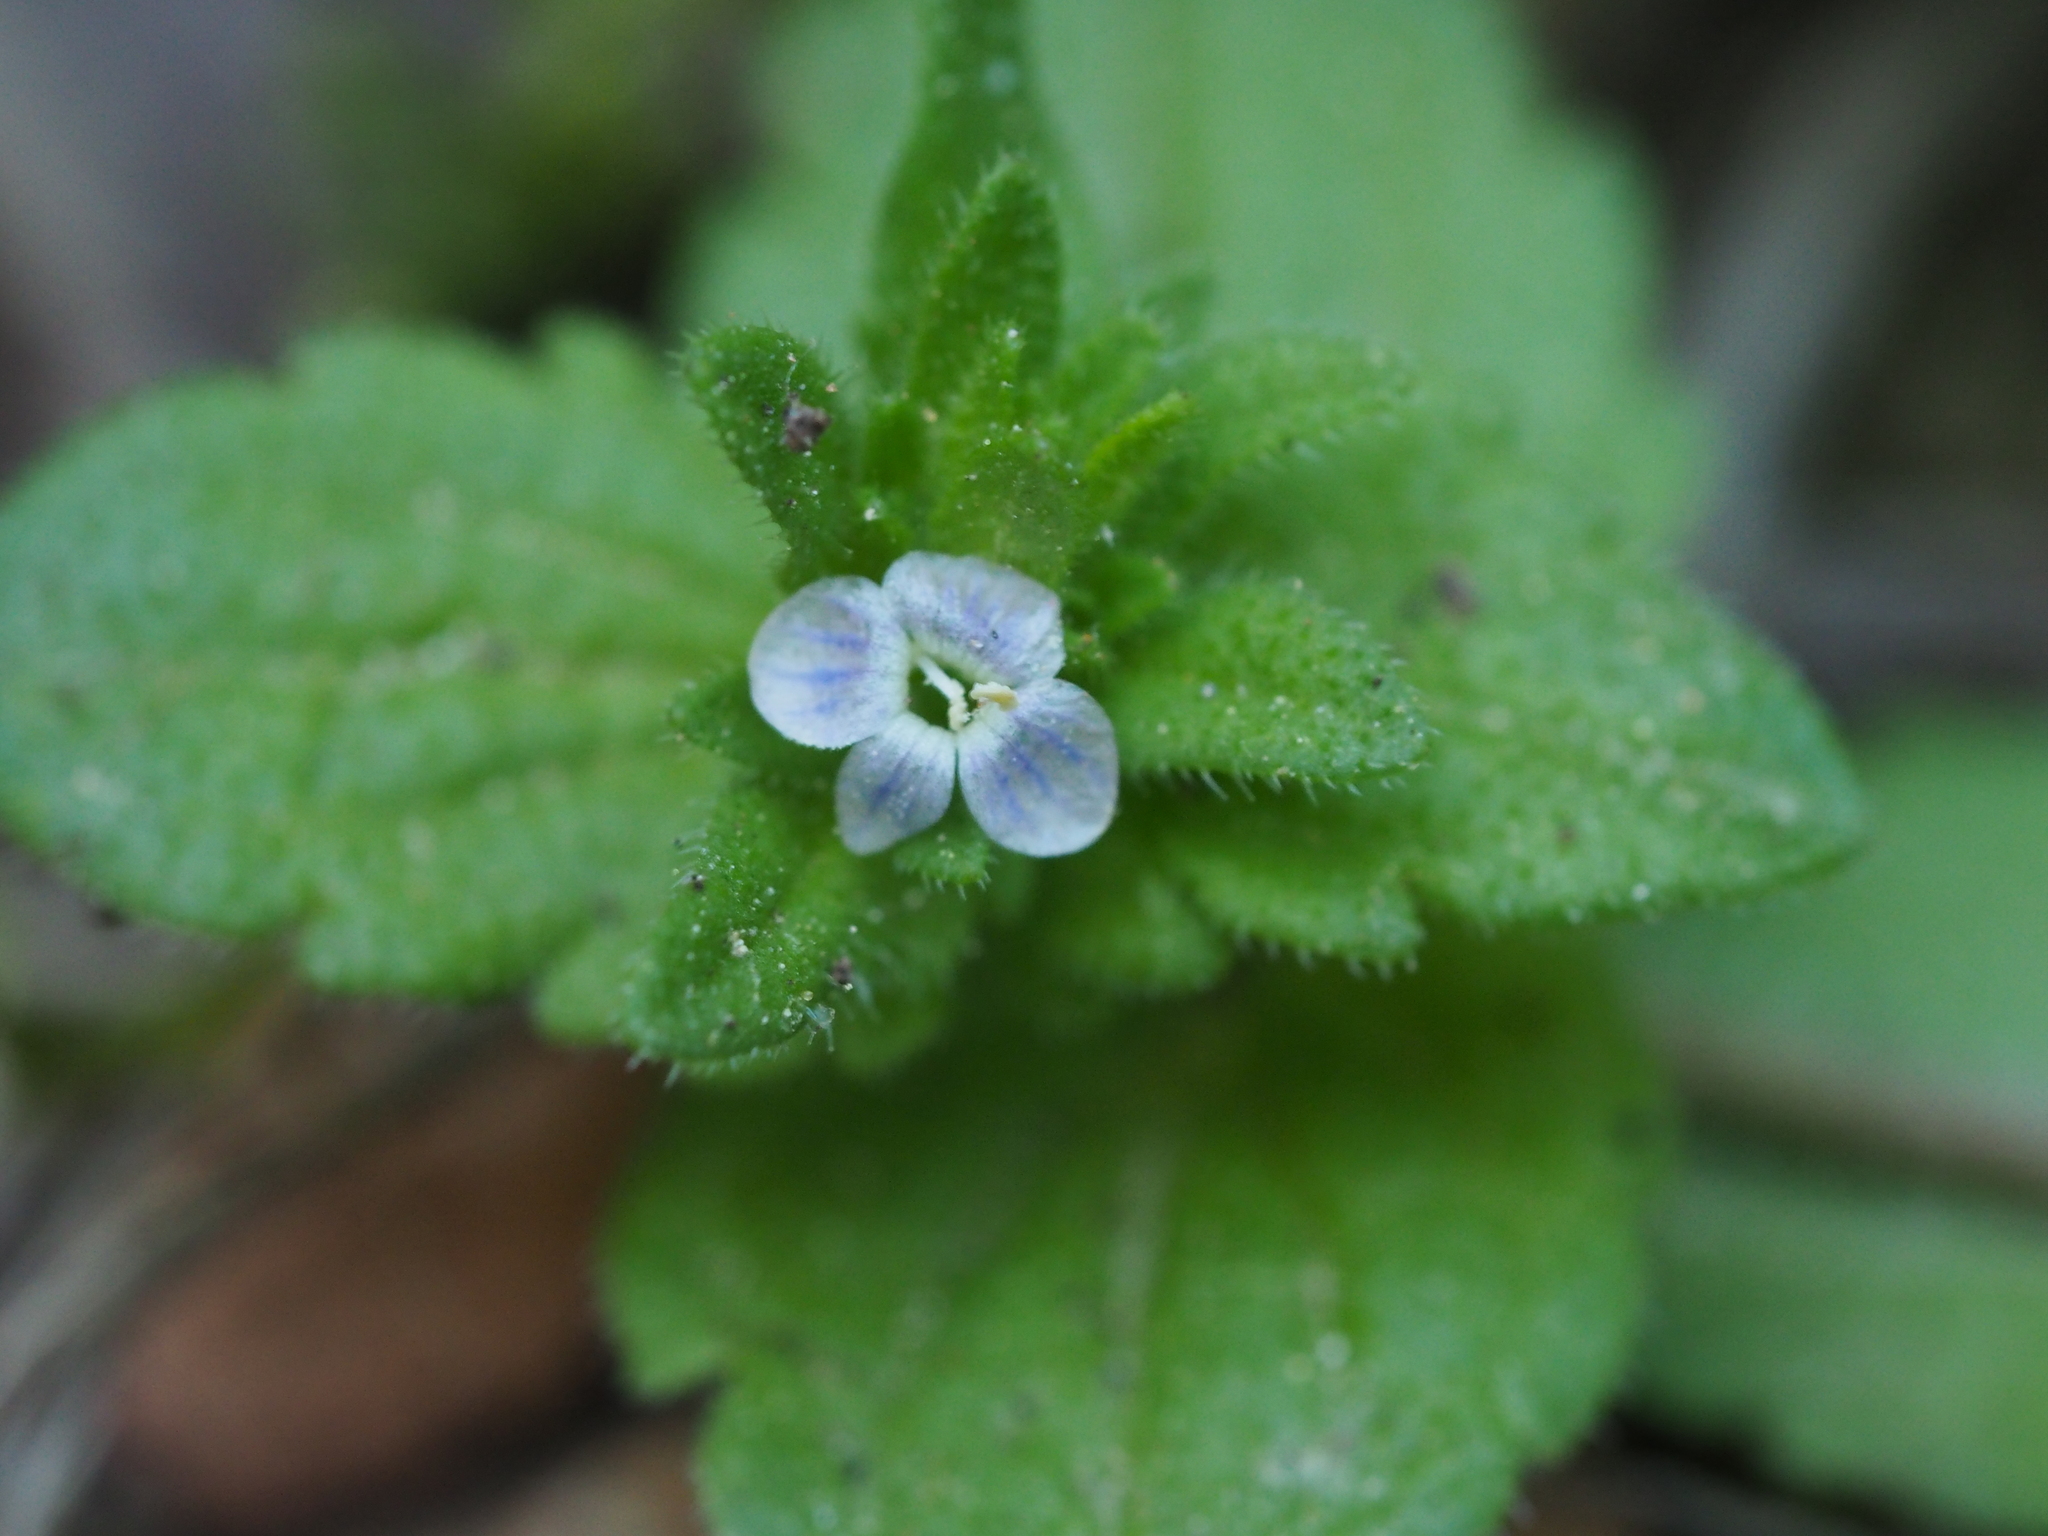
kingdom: Plantae
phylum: Tracheophyta
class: Magnoliopsida
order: Lamiales
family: Plantaginaceae
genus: Veronica
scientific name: Veronica arvensis
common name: Corn speedwell
